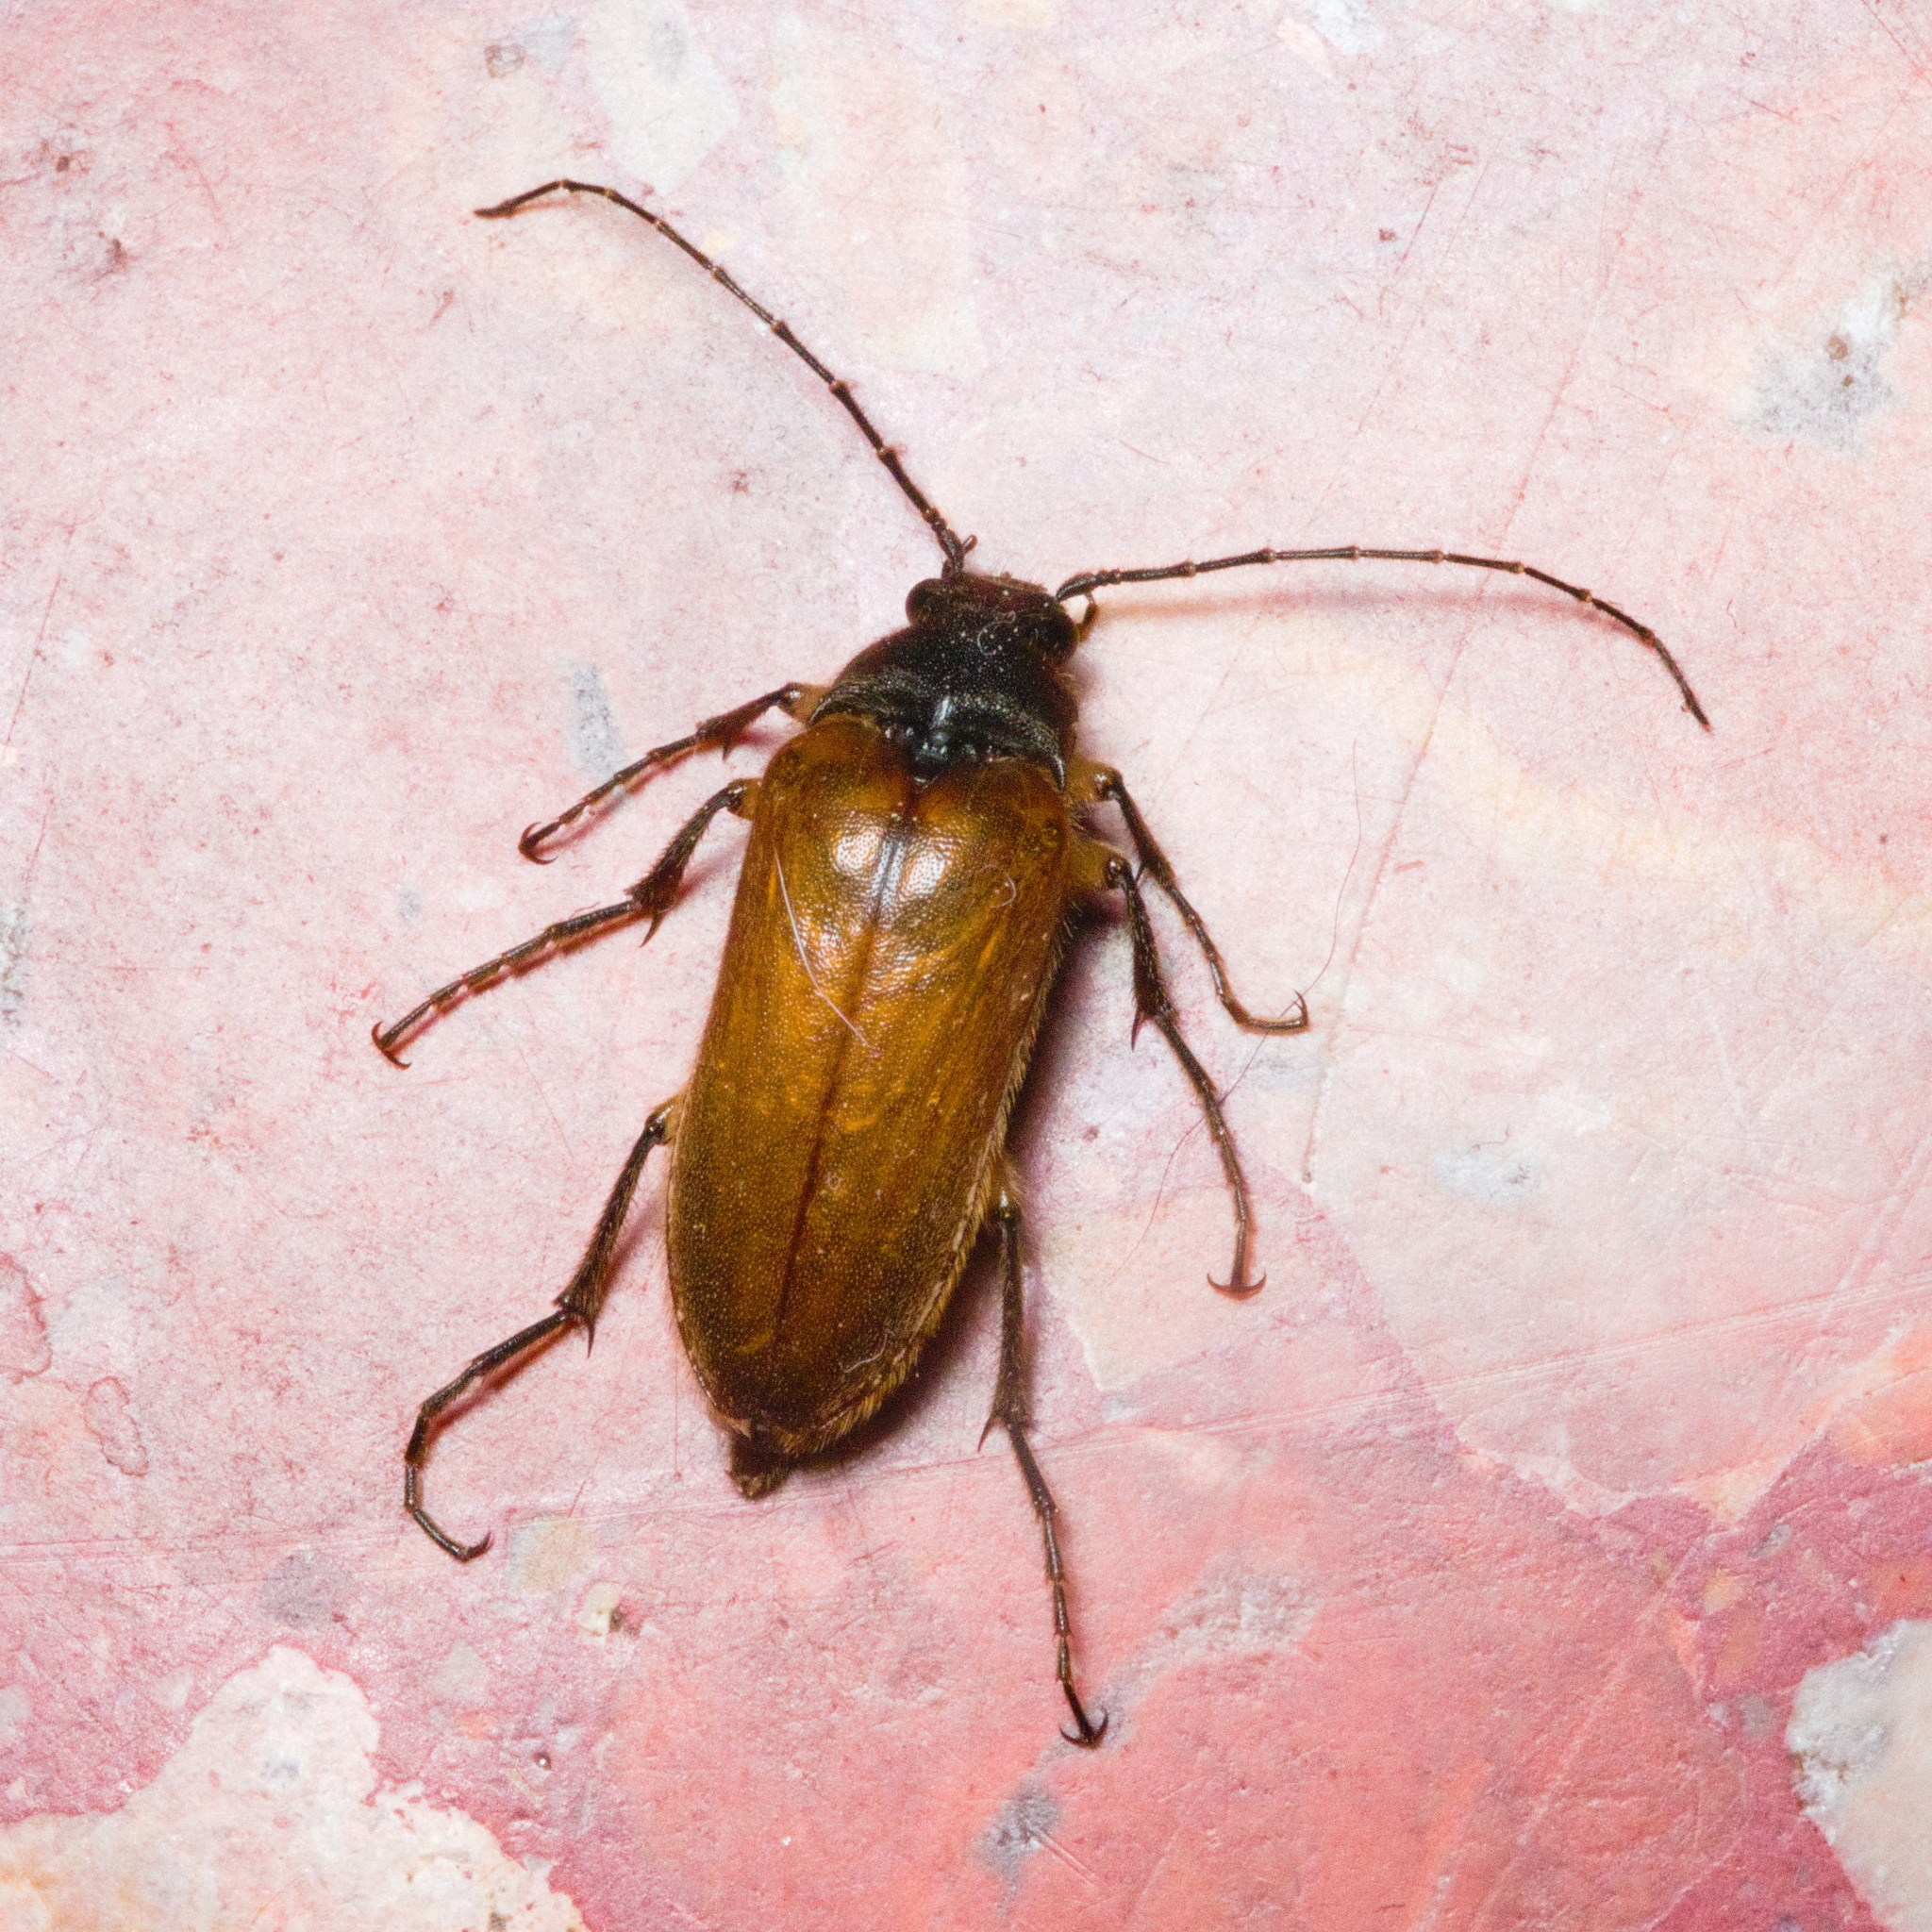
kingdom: Animalia
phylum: Arthropoda
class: Insecta
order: Coleoptera
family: Elateridae
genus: Cebrio
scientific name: Cebrio gigas
